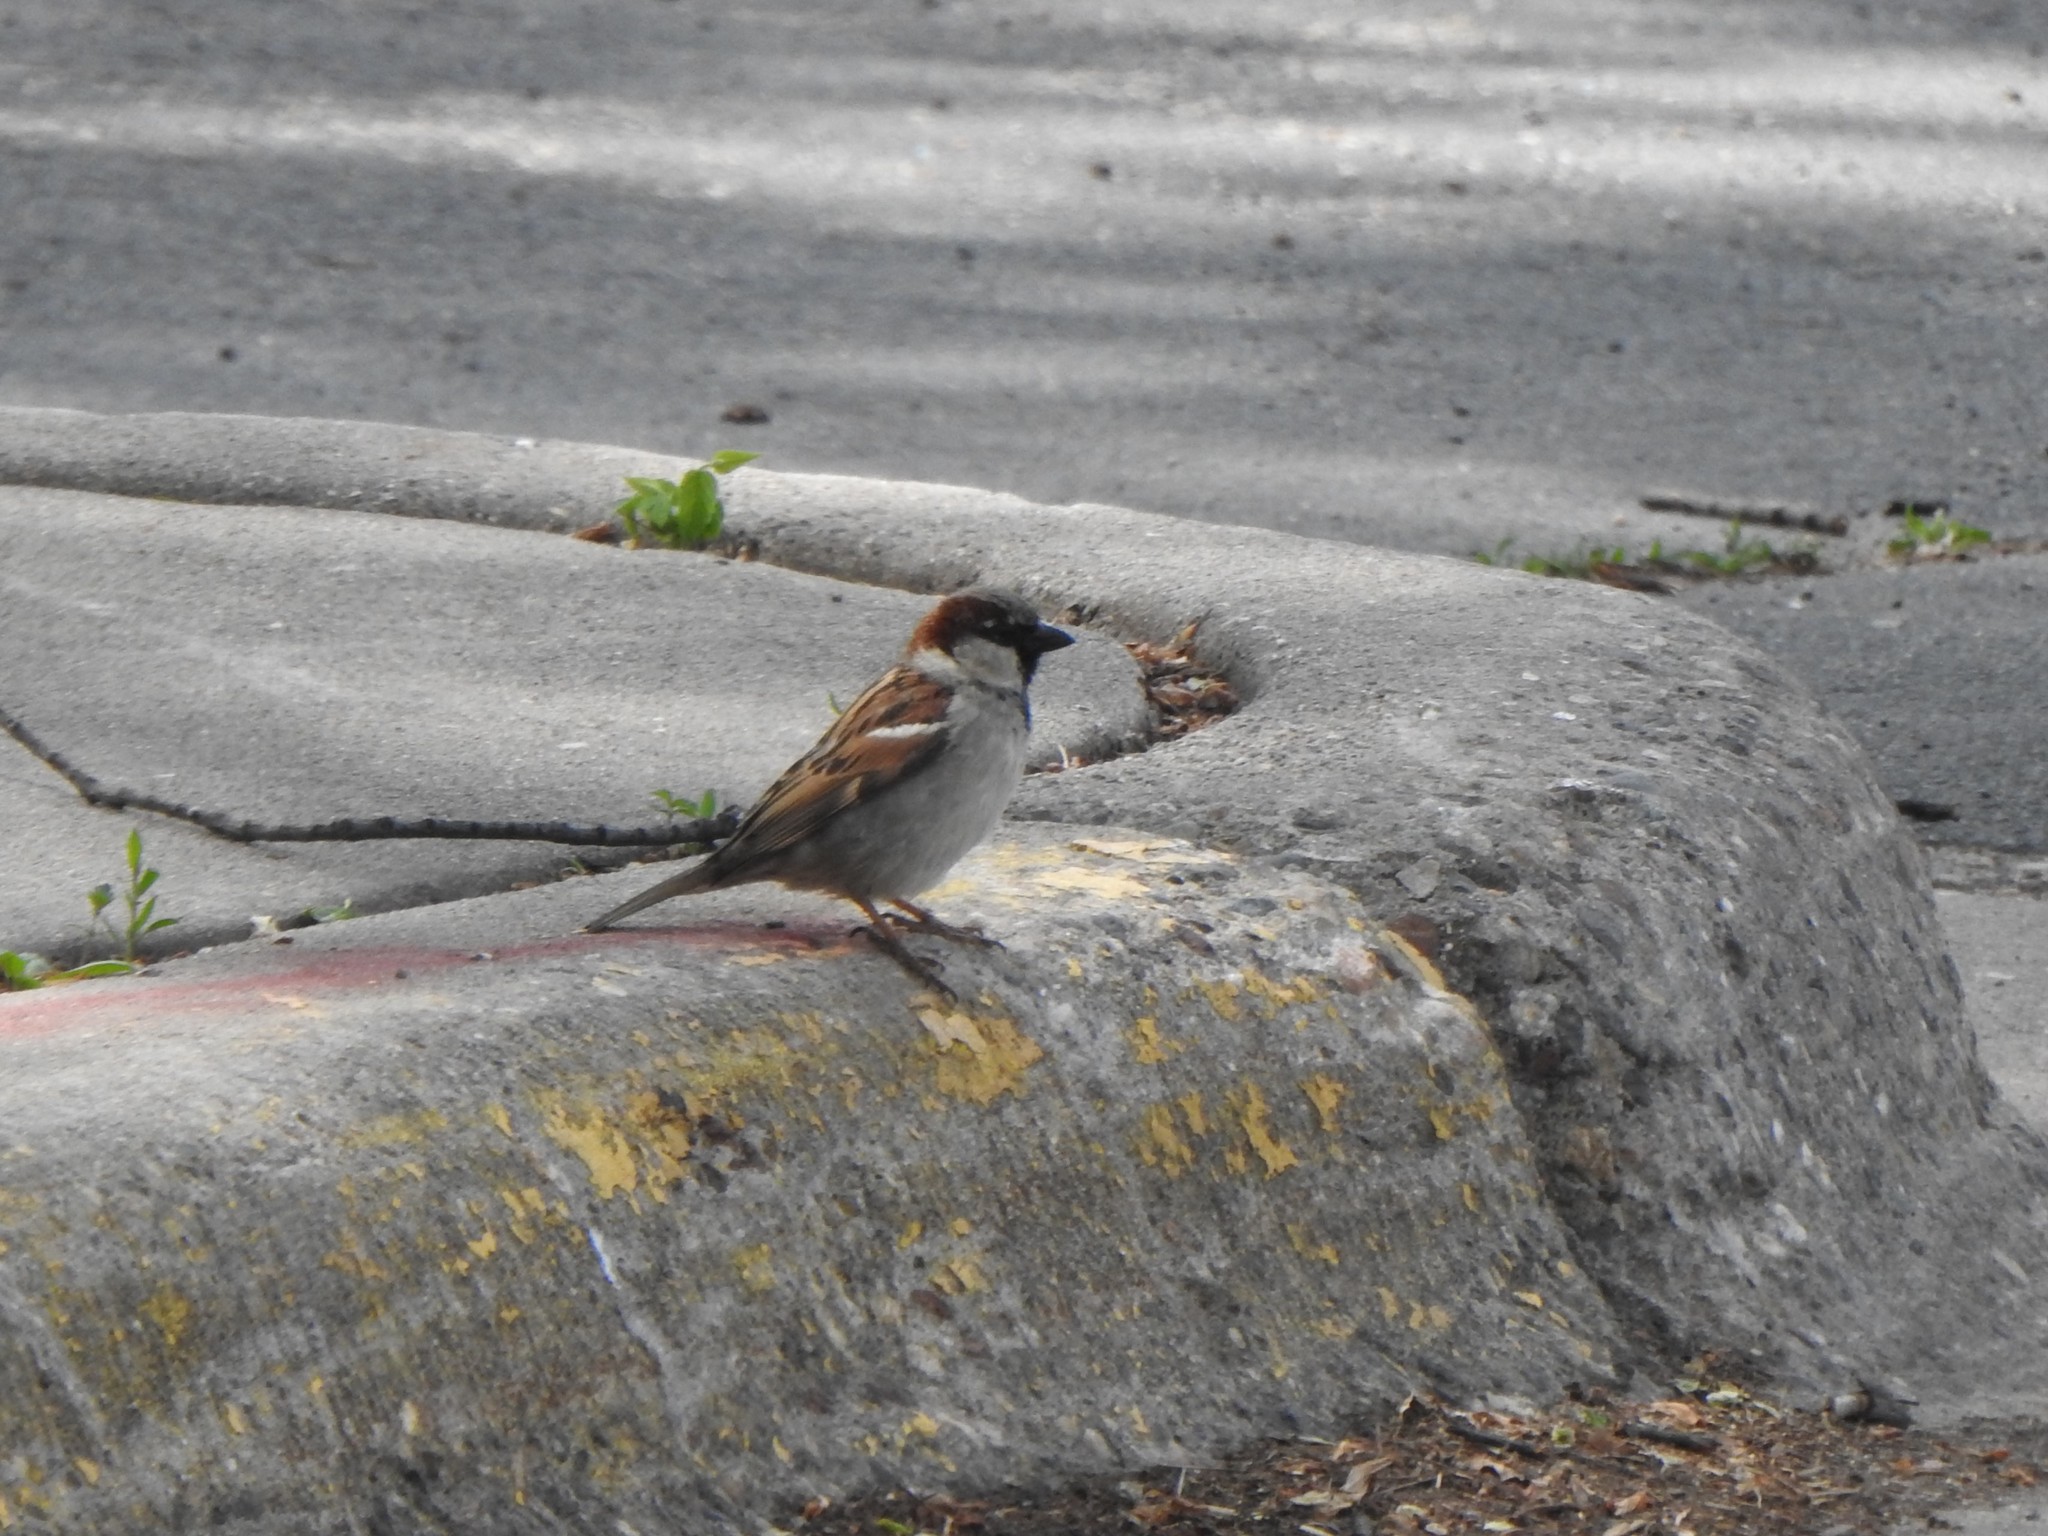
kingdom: Animalia
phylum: Chordata
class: Aves
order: Passeriformes
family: Passeridae
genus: Passer
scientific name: Passer domesticus
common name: House sparrow
